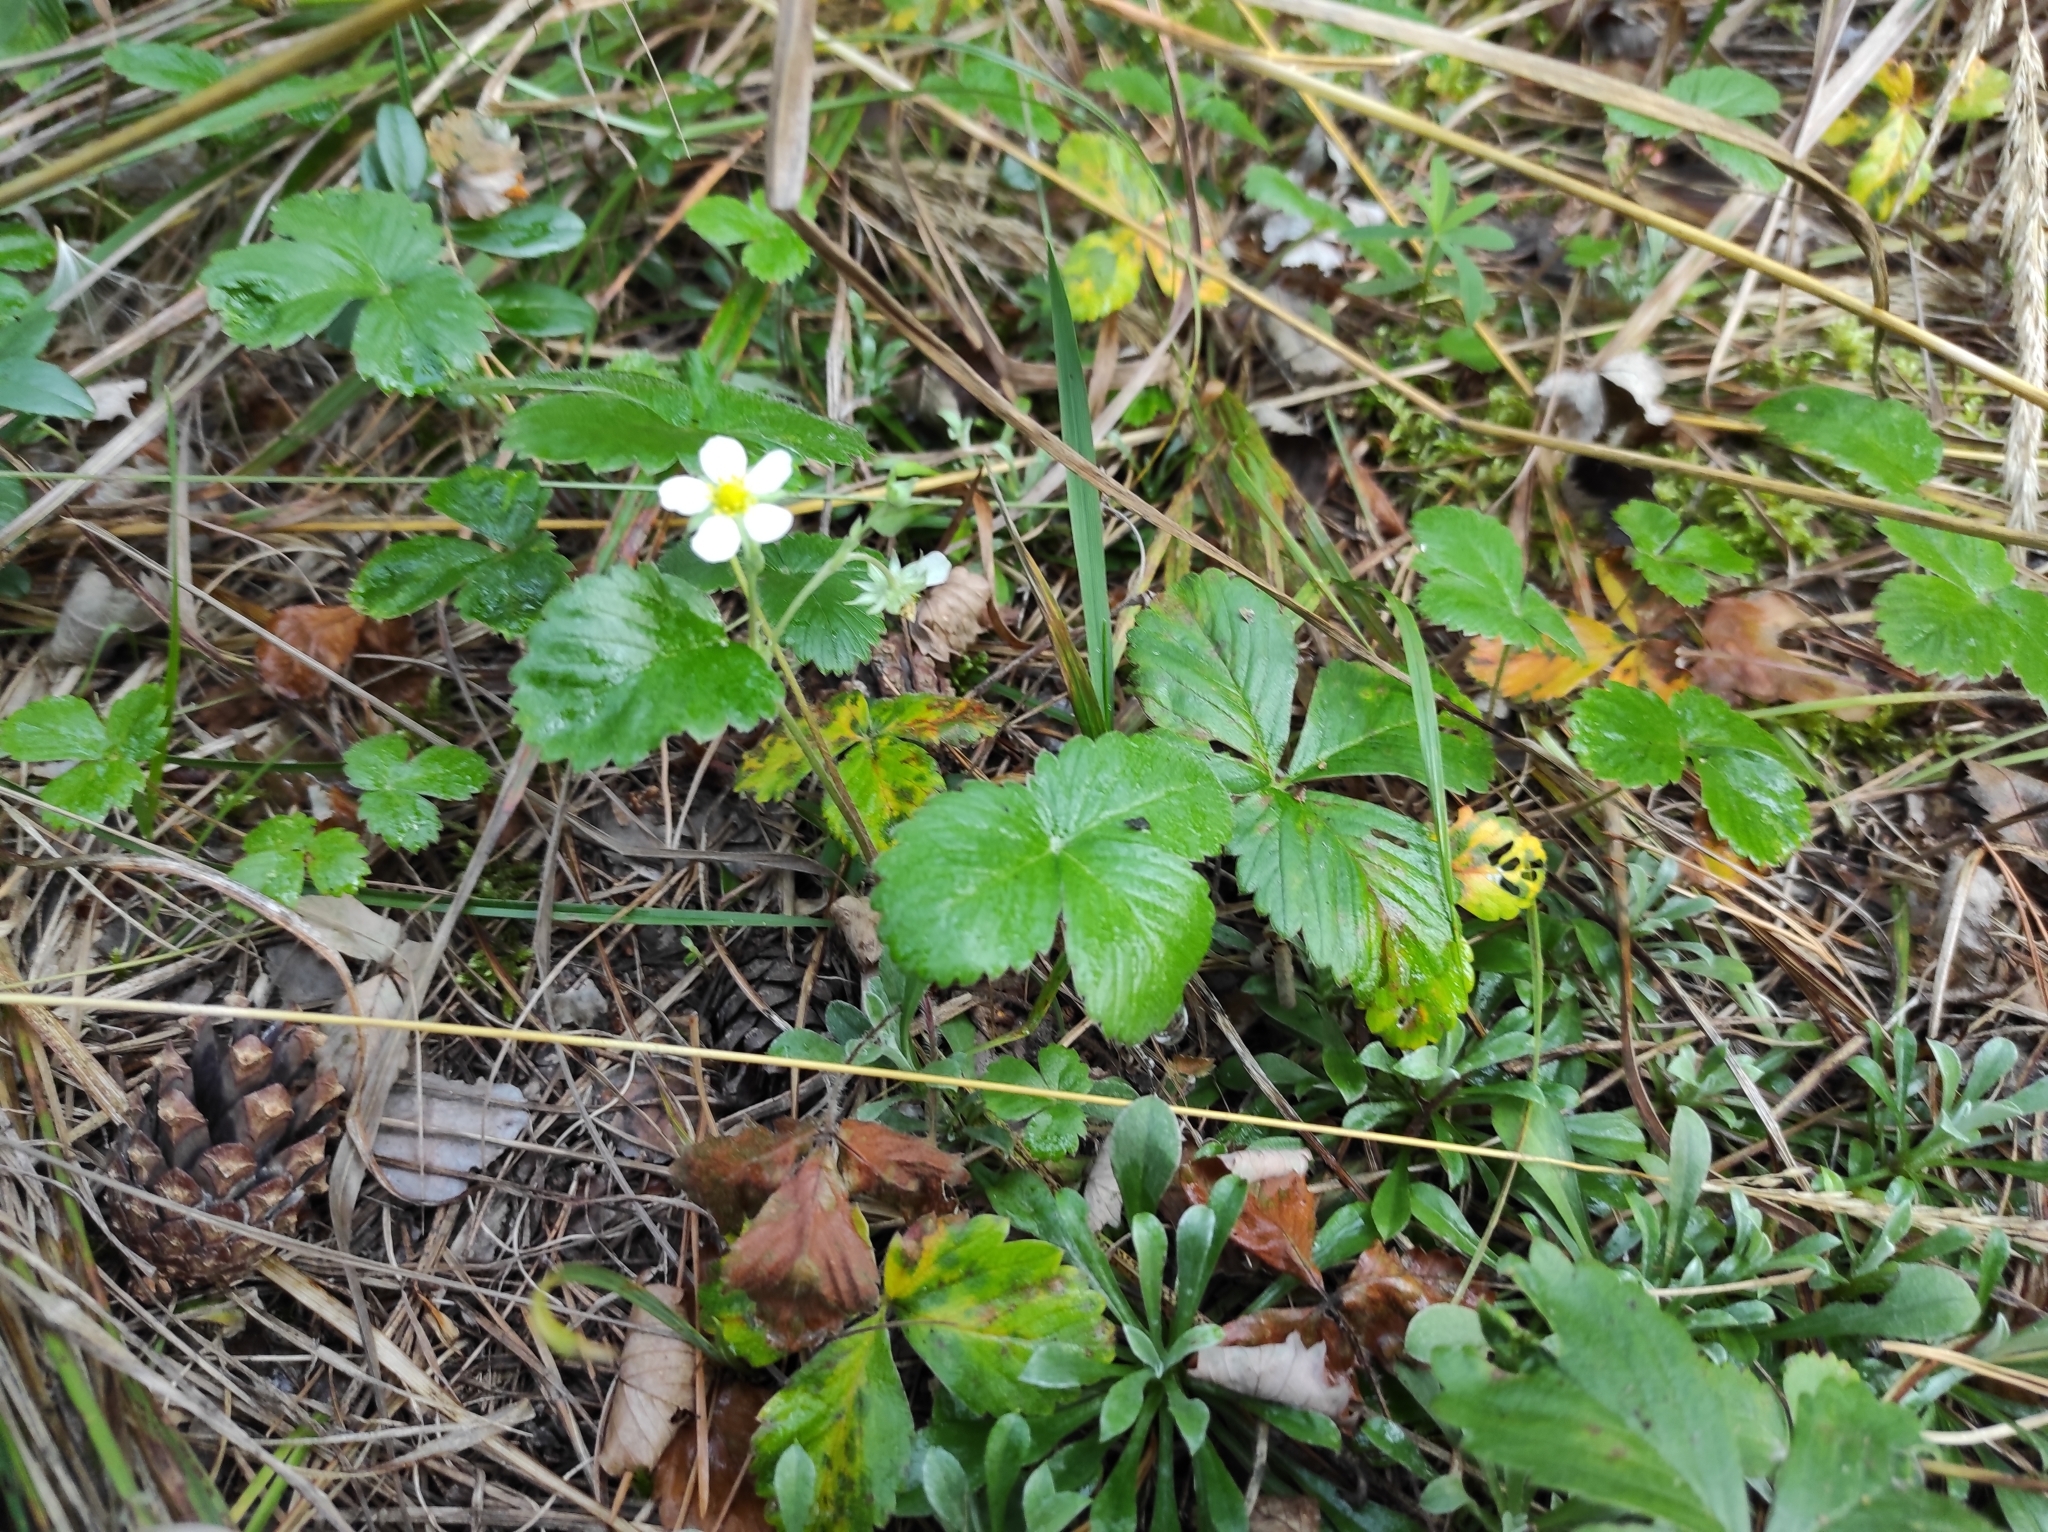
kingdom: Plantae
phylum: Tracheophyta
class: Magnoliopsida
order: Rosales
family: Rosaceae
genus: Fragaria
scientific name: Fragaria vesca
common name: Wild strawberry
